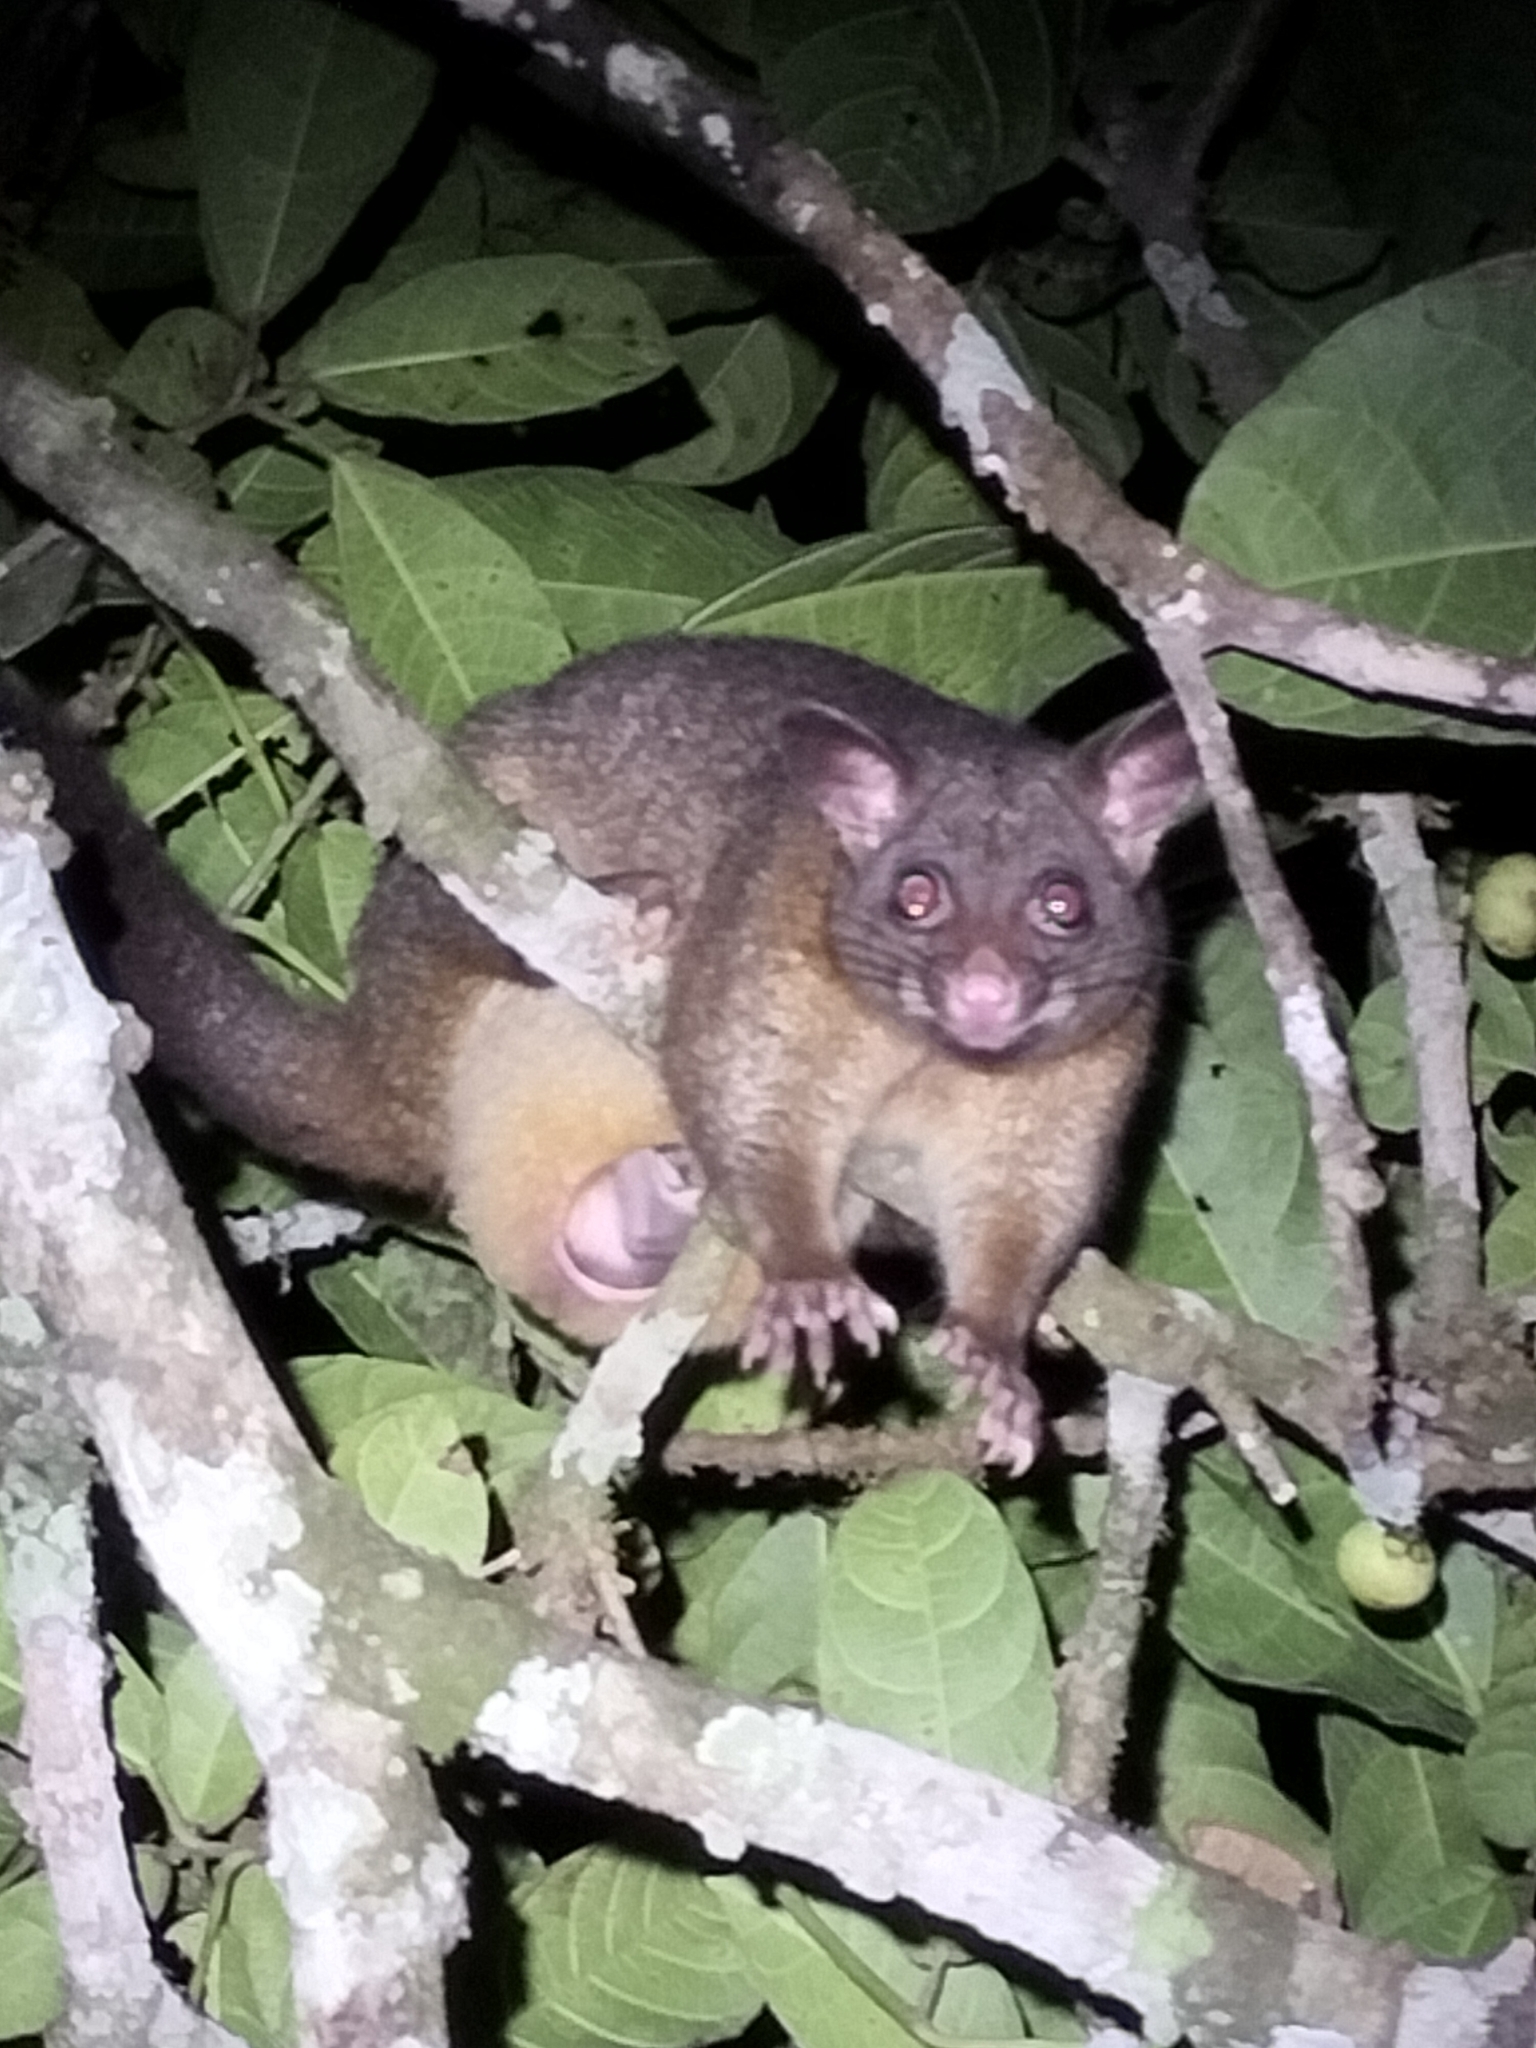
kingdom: Animalia
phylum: Chordata
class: Mammalia
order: Diprotodontia
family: Phalangeridae
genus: Trichosurus
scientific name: Trichosurus vulpecula
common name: Common brushtail
